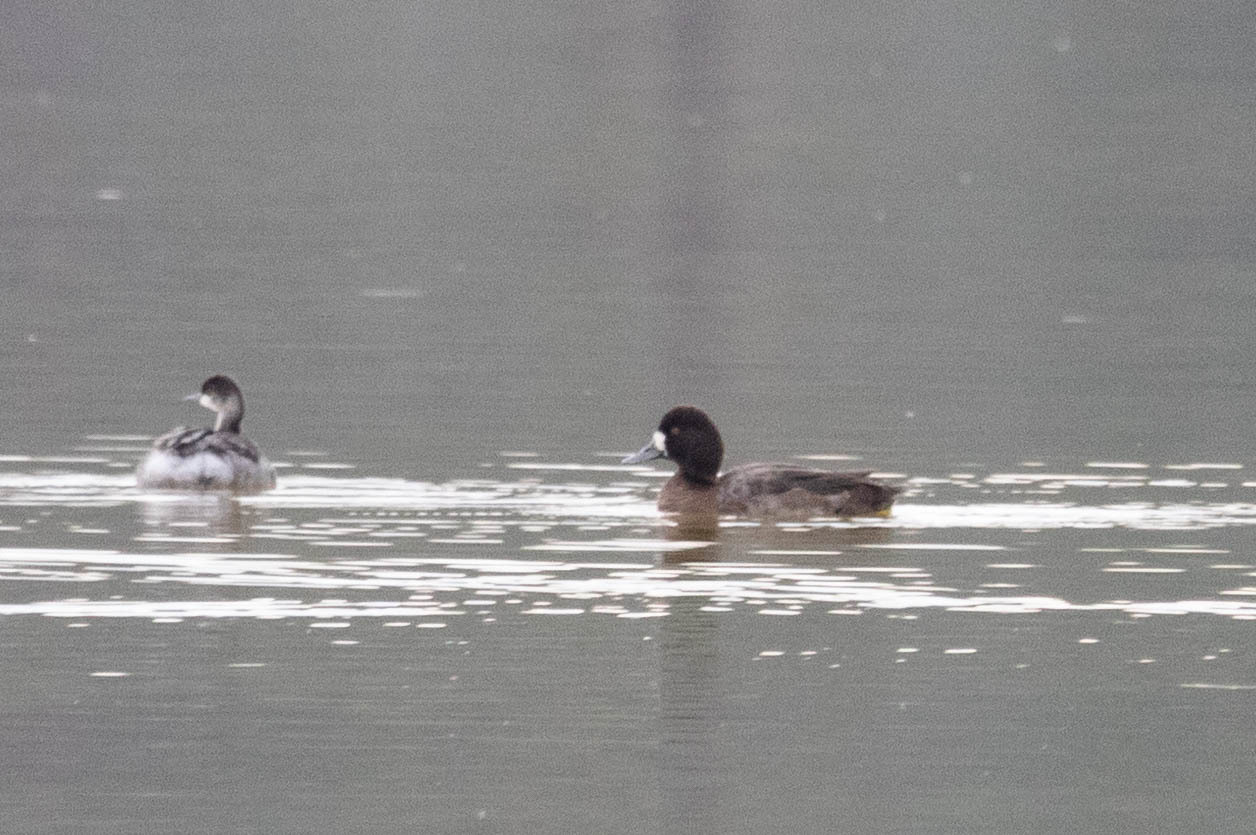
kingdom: Animalia
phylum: Chordata
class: Aves
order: Anseriformes
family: Anatidae
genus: Aythya
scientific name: Aythya marila
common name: Greater scaup
